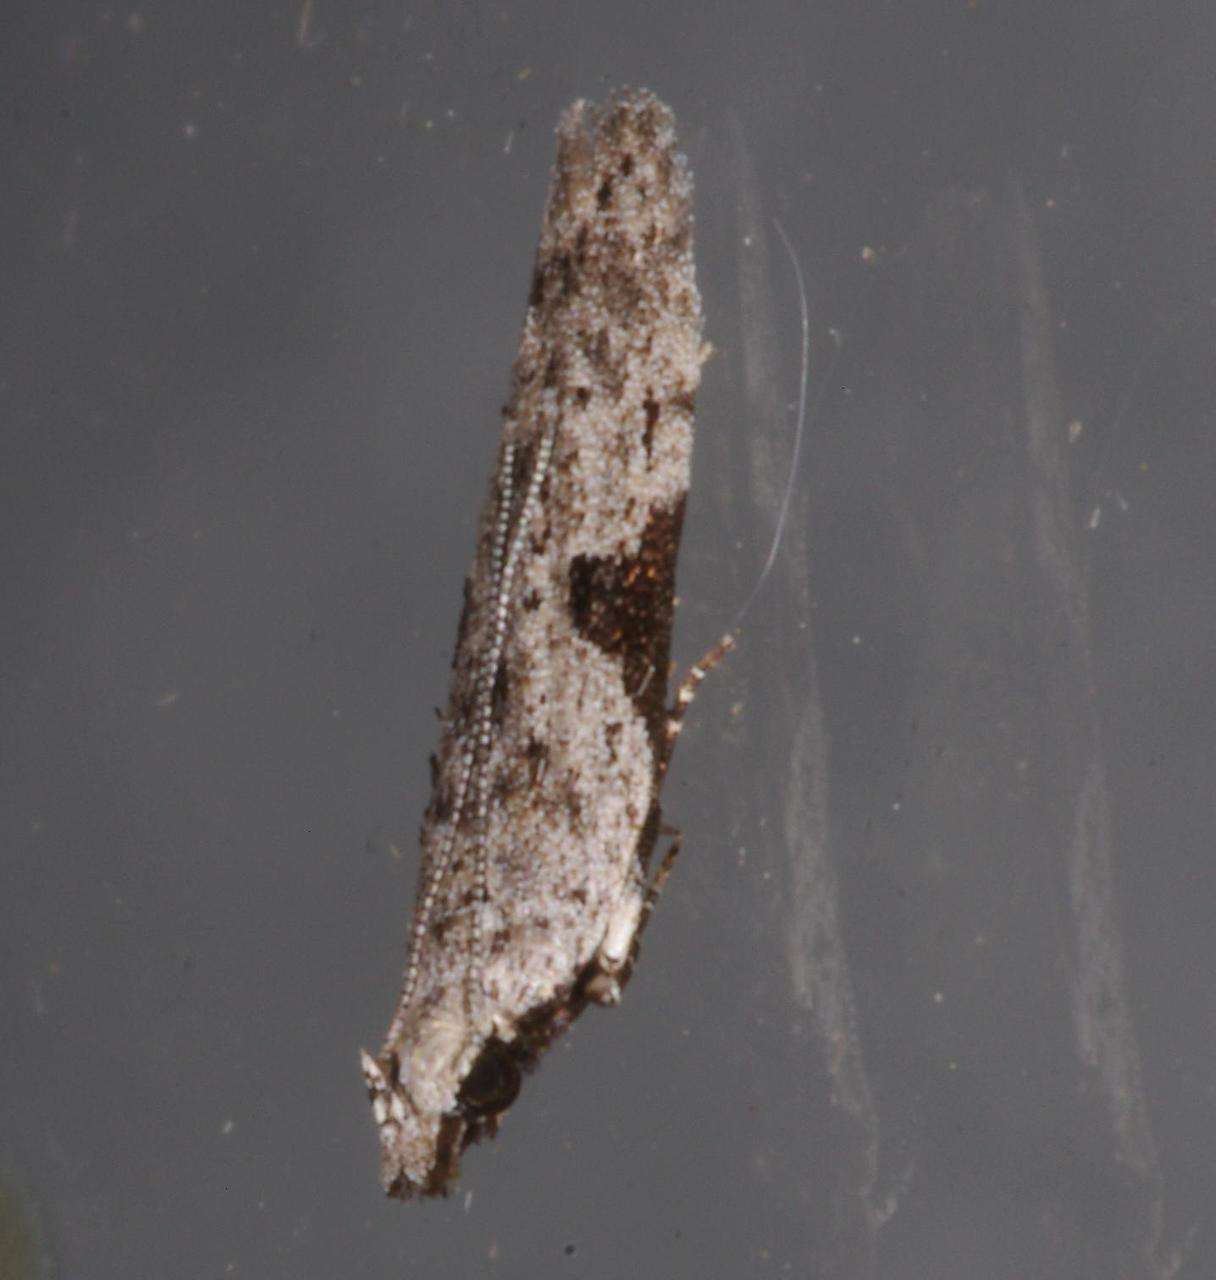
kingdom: Animalia
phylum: Arthropoda
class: Insecta
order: Lepidoptera
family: Gelechiidae
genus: Anarsia
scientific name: Anarsia molybdota
